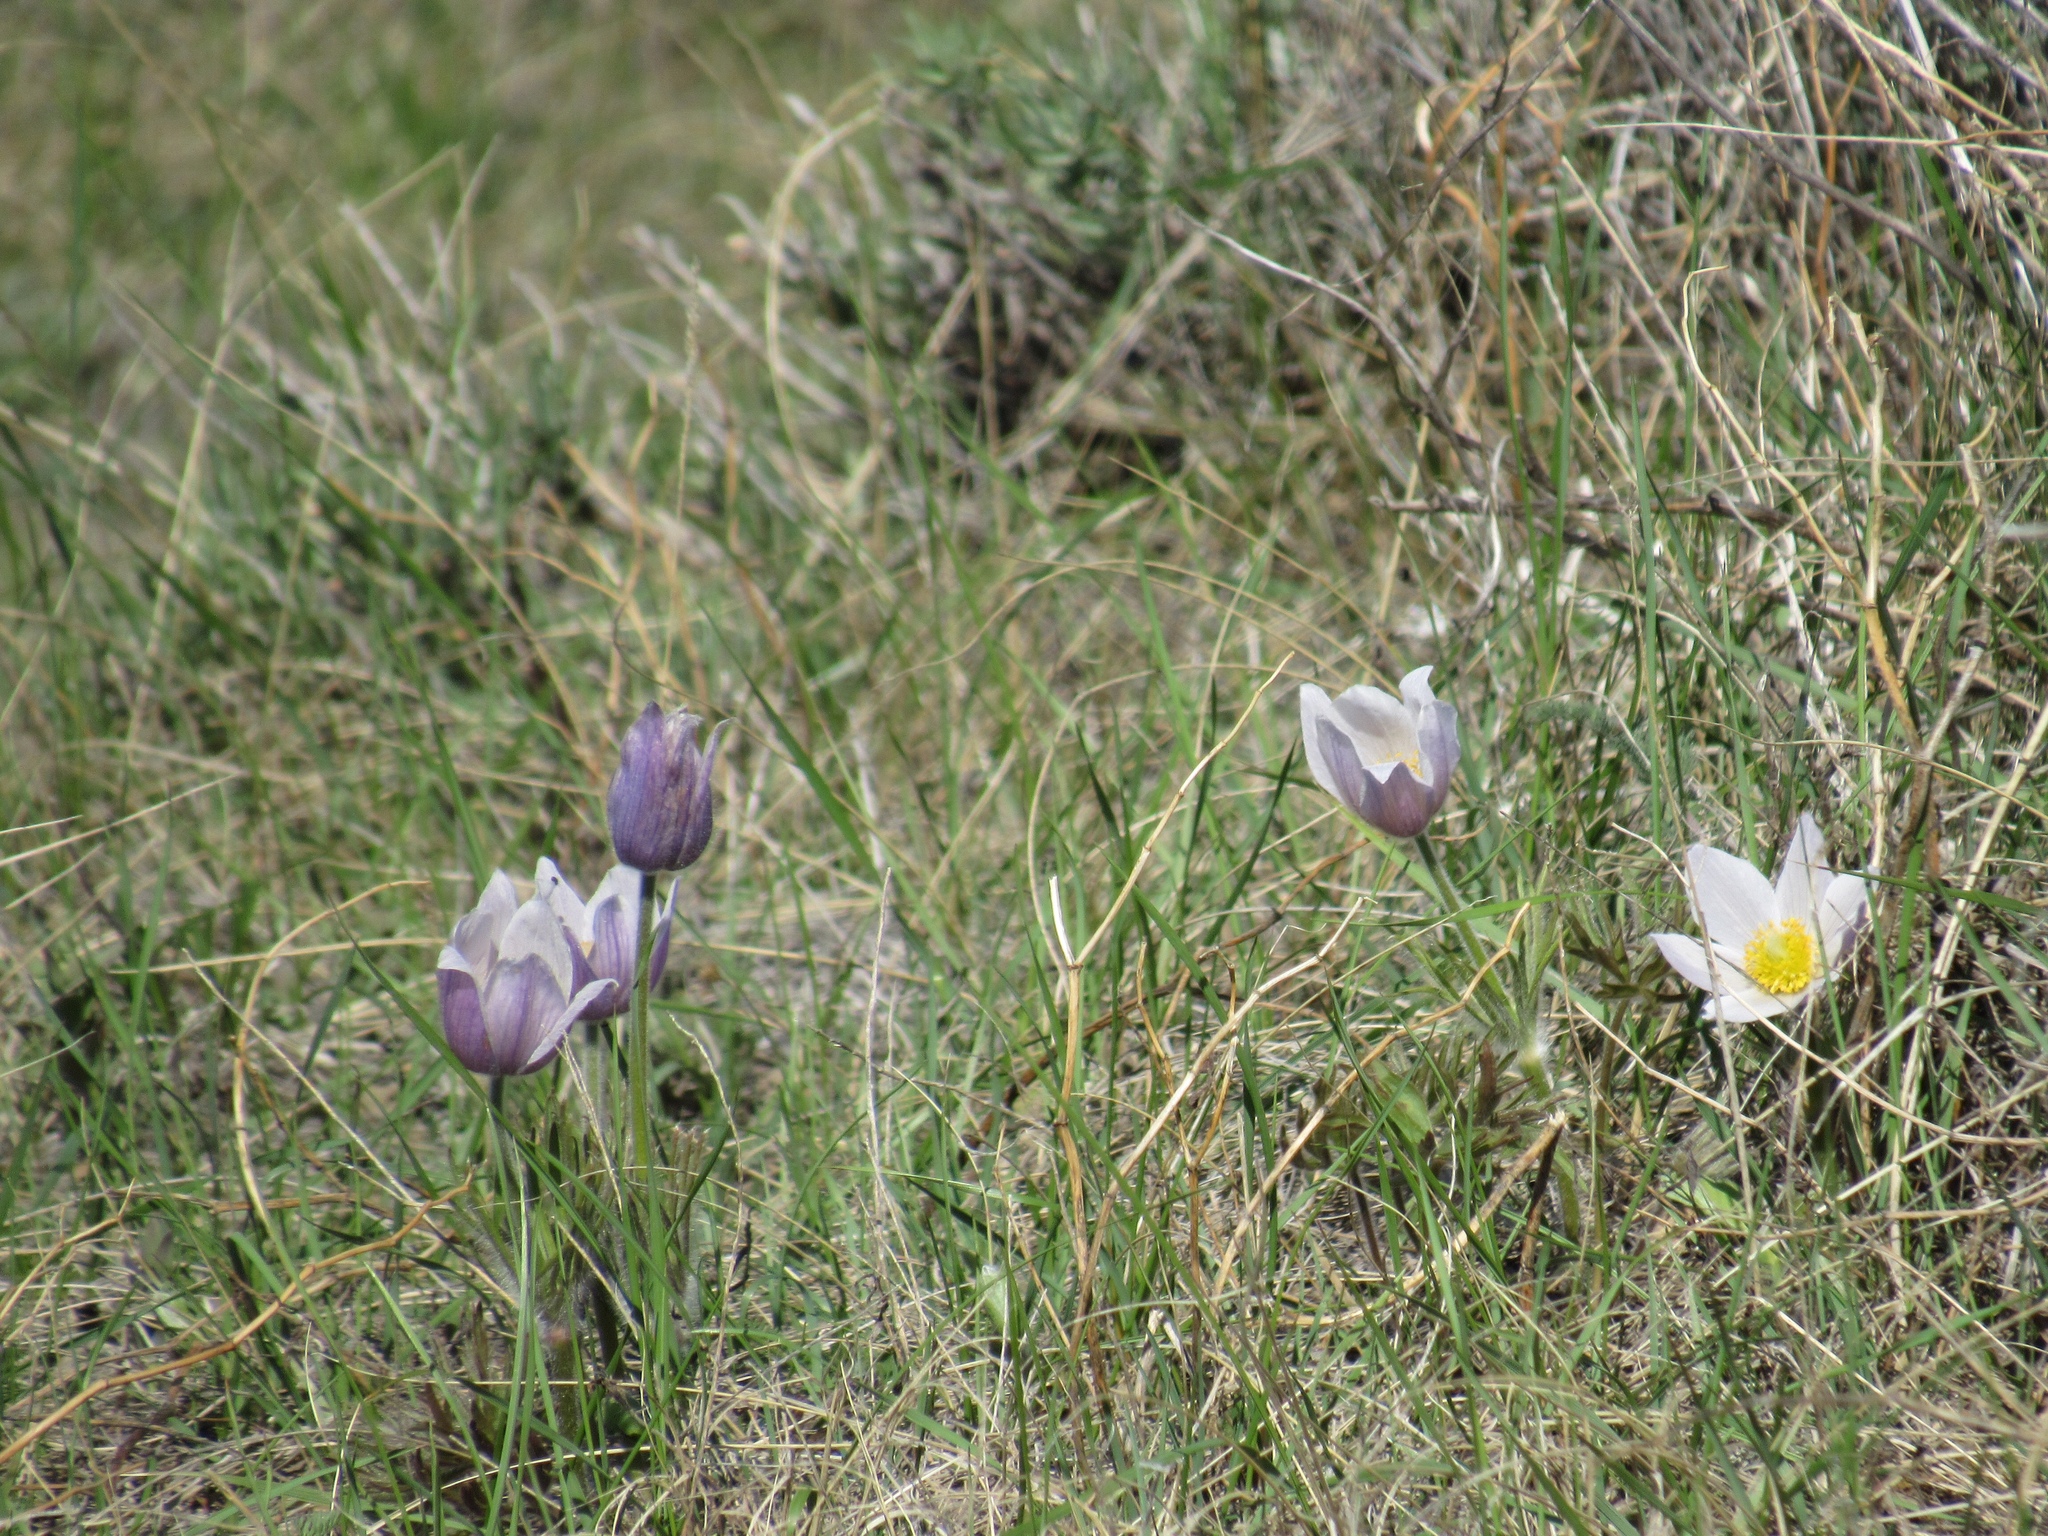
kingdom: Plantae
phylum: Tracheophyta
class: Magnoliopsida
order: Ranunculales
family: Ranunculaceae
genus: Pulsatilla
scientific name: Pulsatilla nuttalliana
